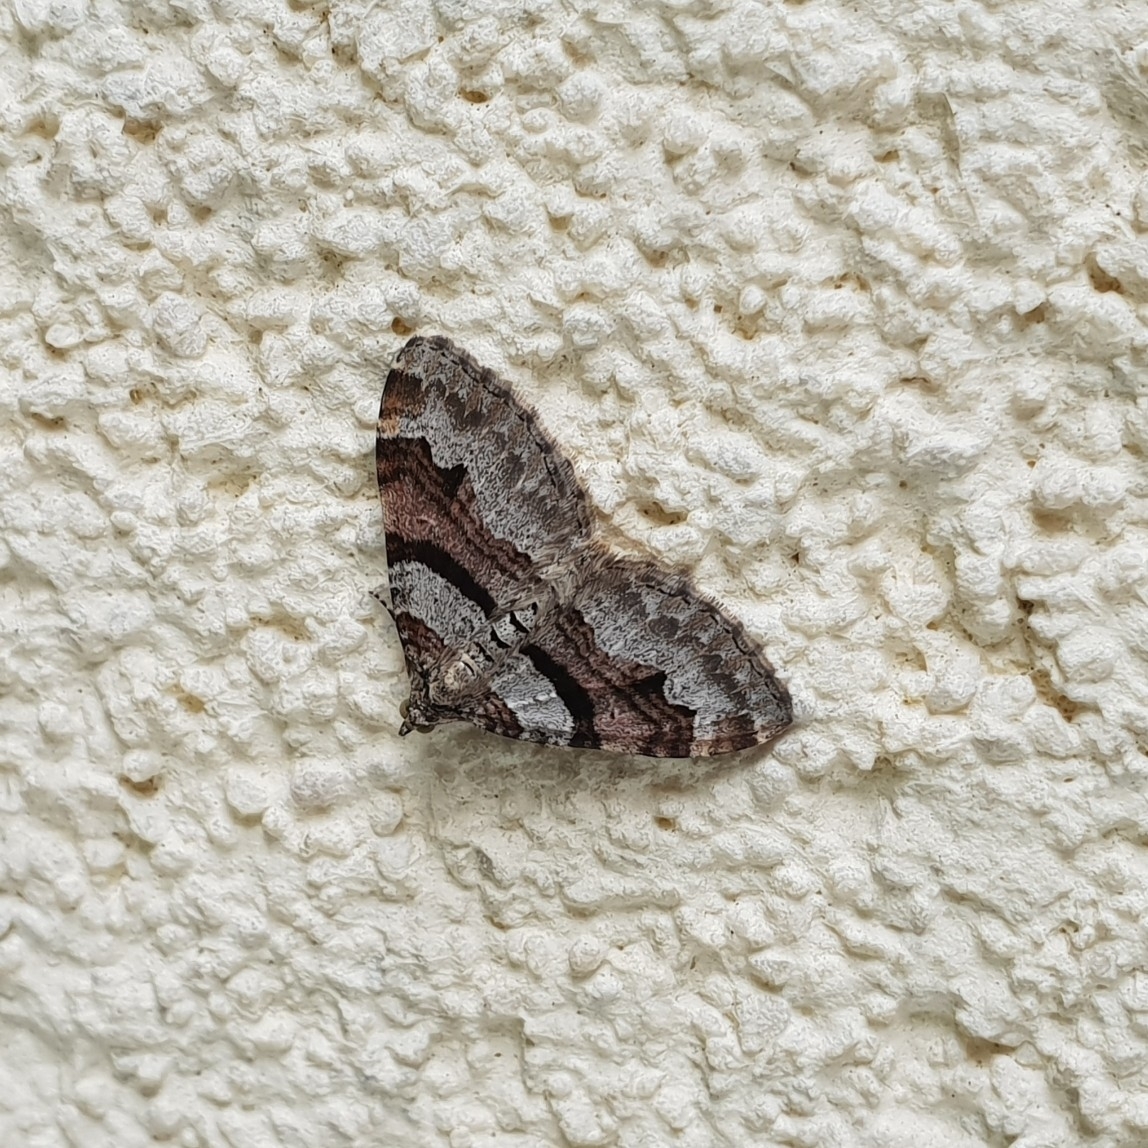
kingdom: Animalia
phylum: Arthropoda
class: Insecta
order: Lepidoptera
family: Geometridae
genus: Xanthorhoe
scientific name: Xanthorhoe designata
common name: Flame carpet
